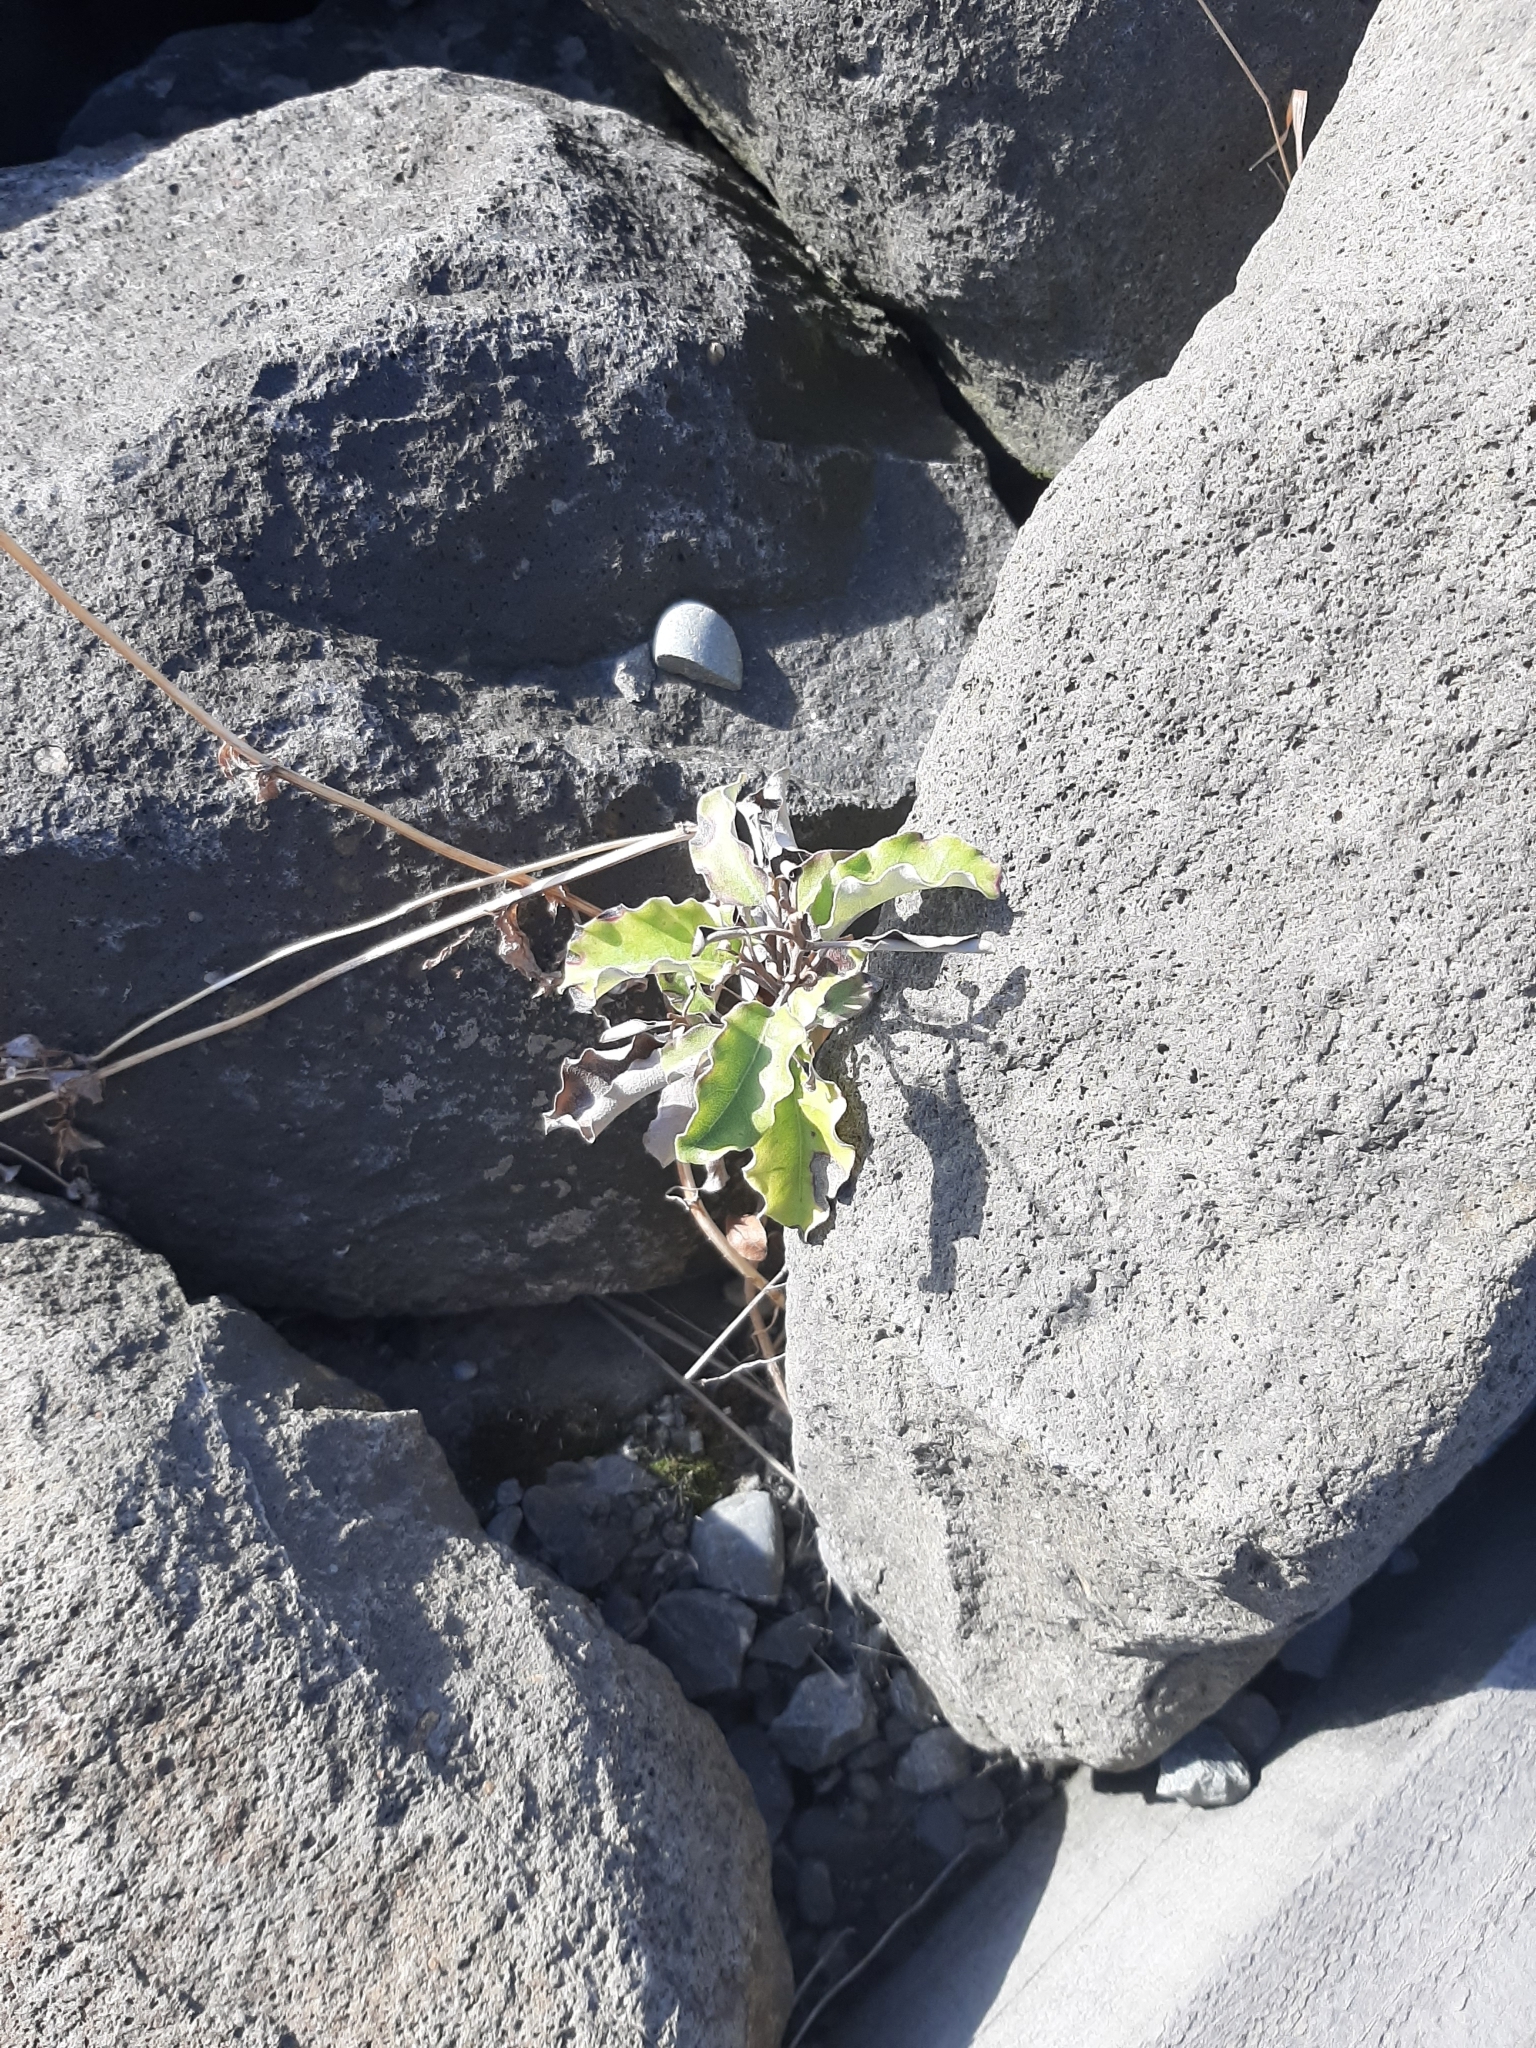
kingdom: Plantae
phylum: Tracheophyta
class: Magnoliopsida
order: Asterales
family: Asteraceae
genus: Olearia
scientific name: Olearia paniculata
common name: Akiraho
